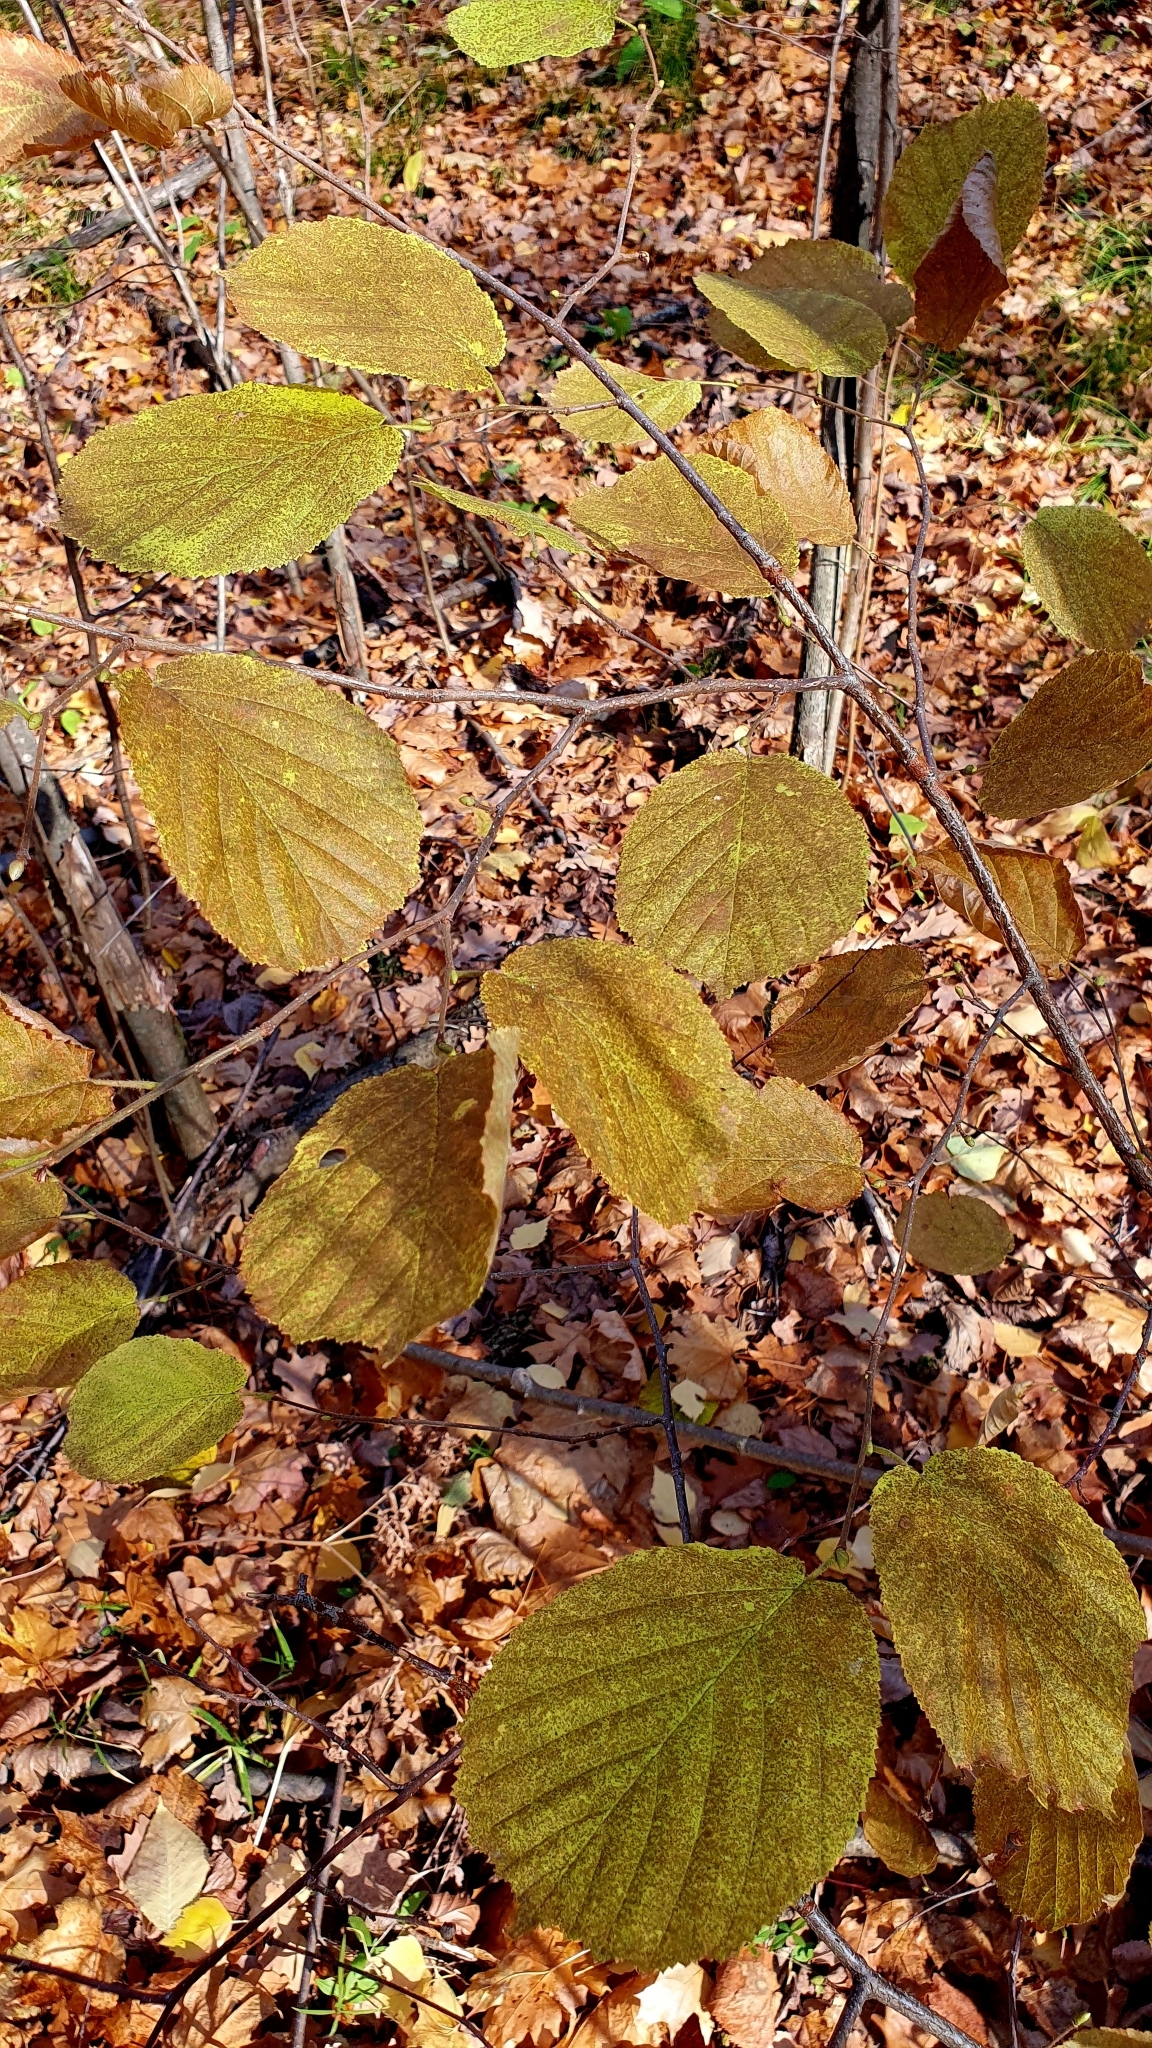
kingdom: Plantae
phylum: Tracheophyta
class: Magnoliopsida
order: Fagales
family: Betulaceae
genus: Corylus
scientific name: Corylus avellana
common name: European hazel
